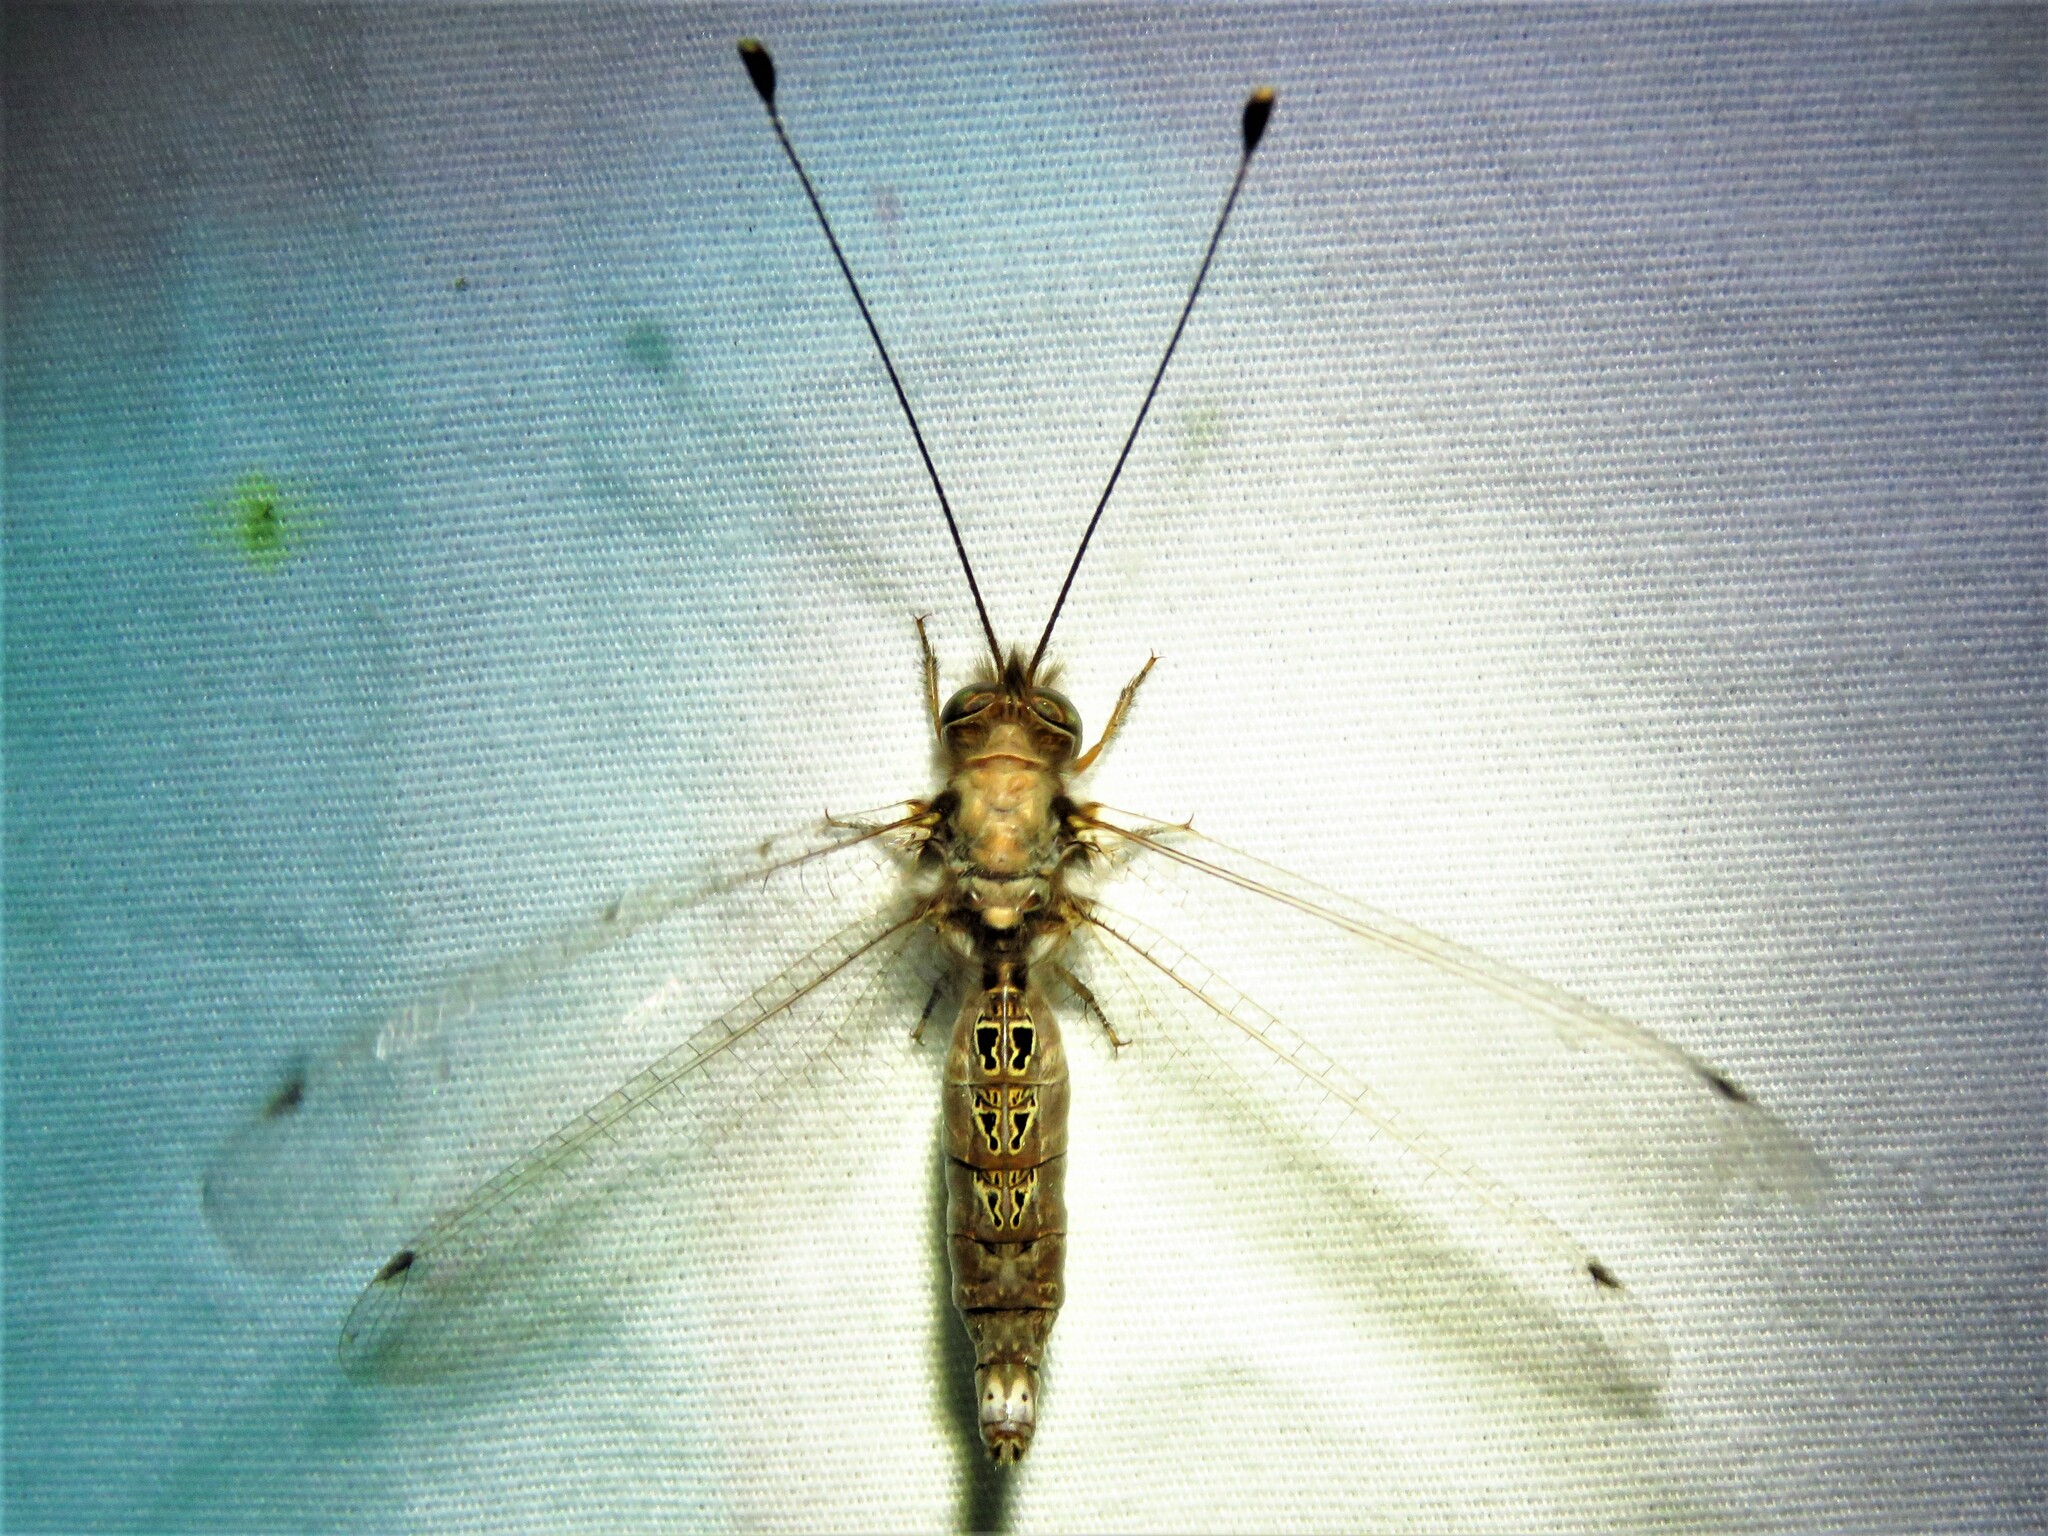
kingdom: Animalia
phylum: Arthropoda
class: Insecta
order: Neuroptera
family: Ascalaphidae
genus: Ululodes
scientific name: Ululodes macleayanus
